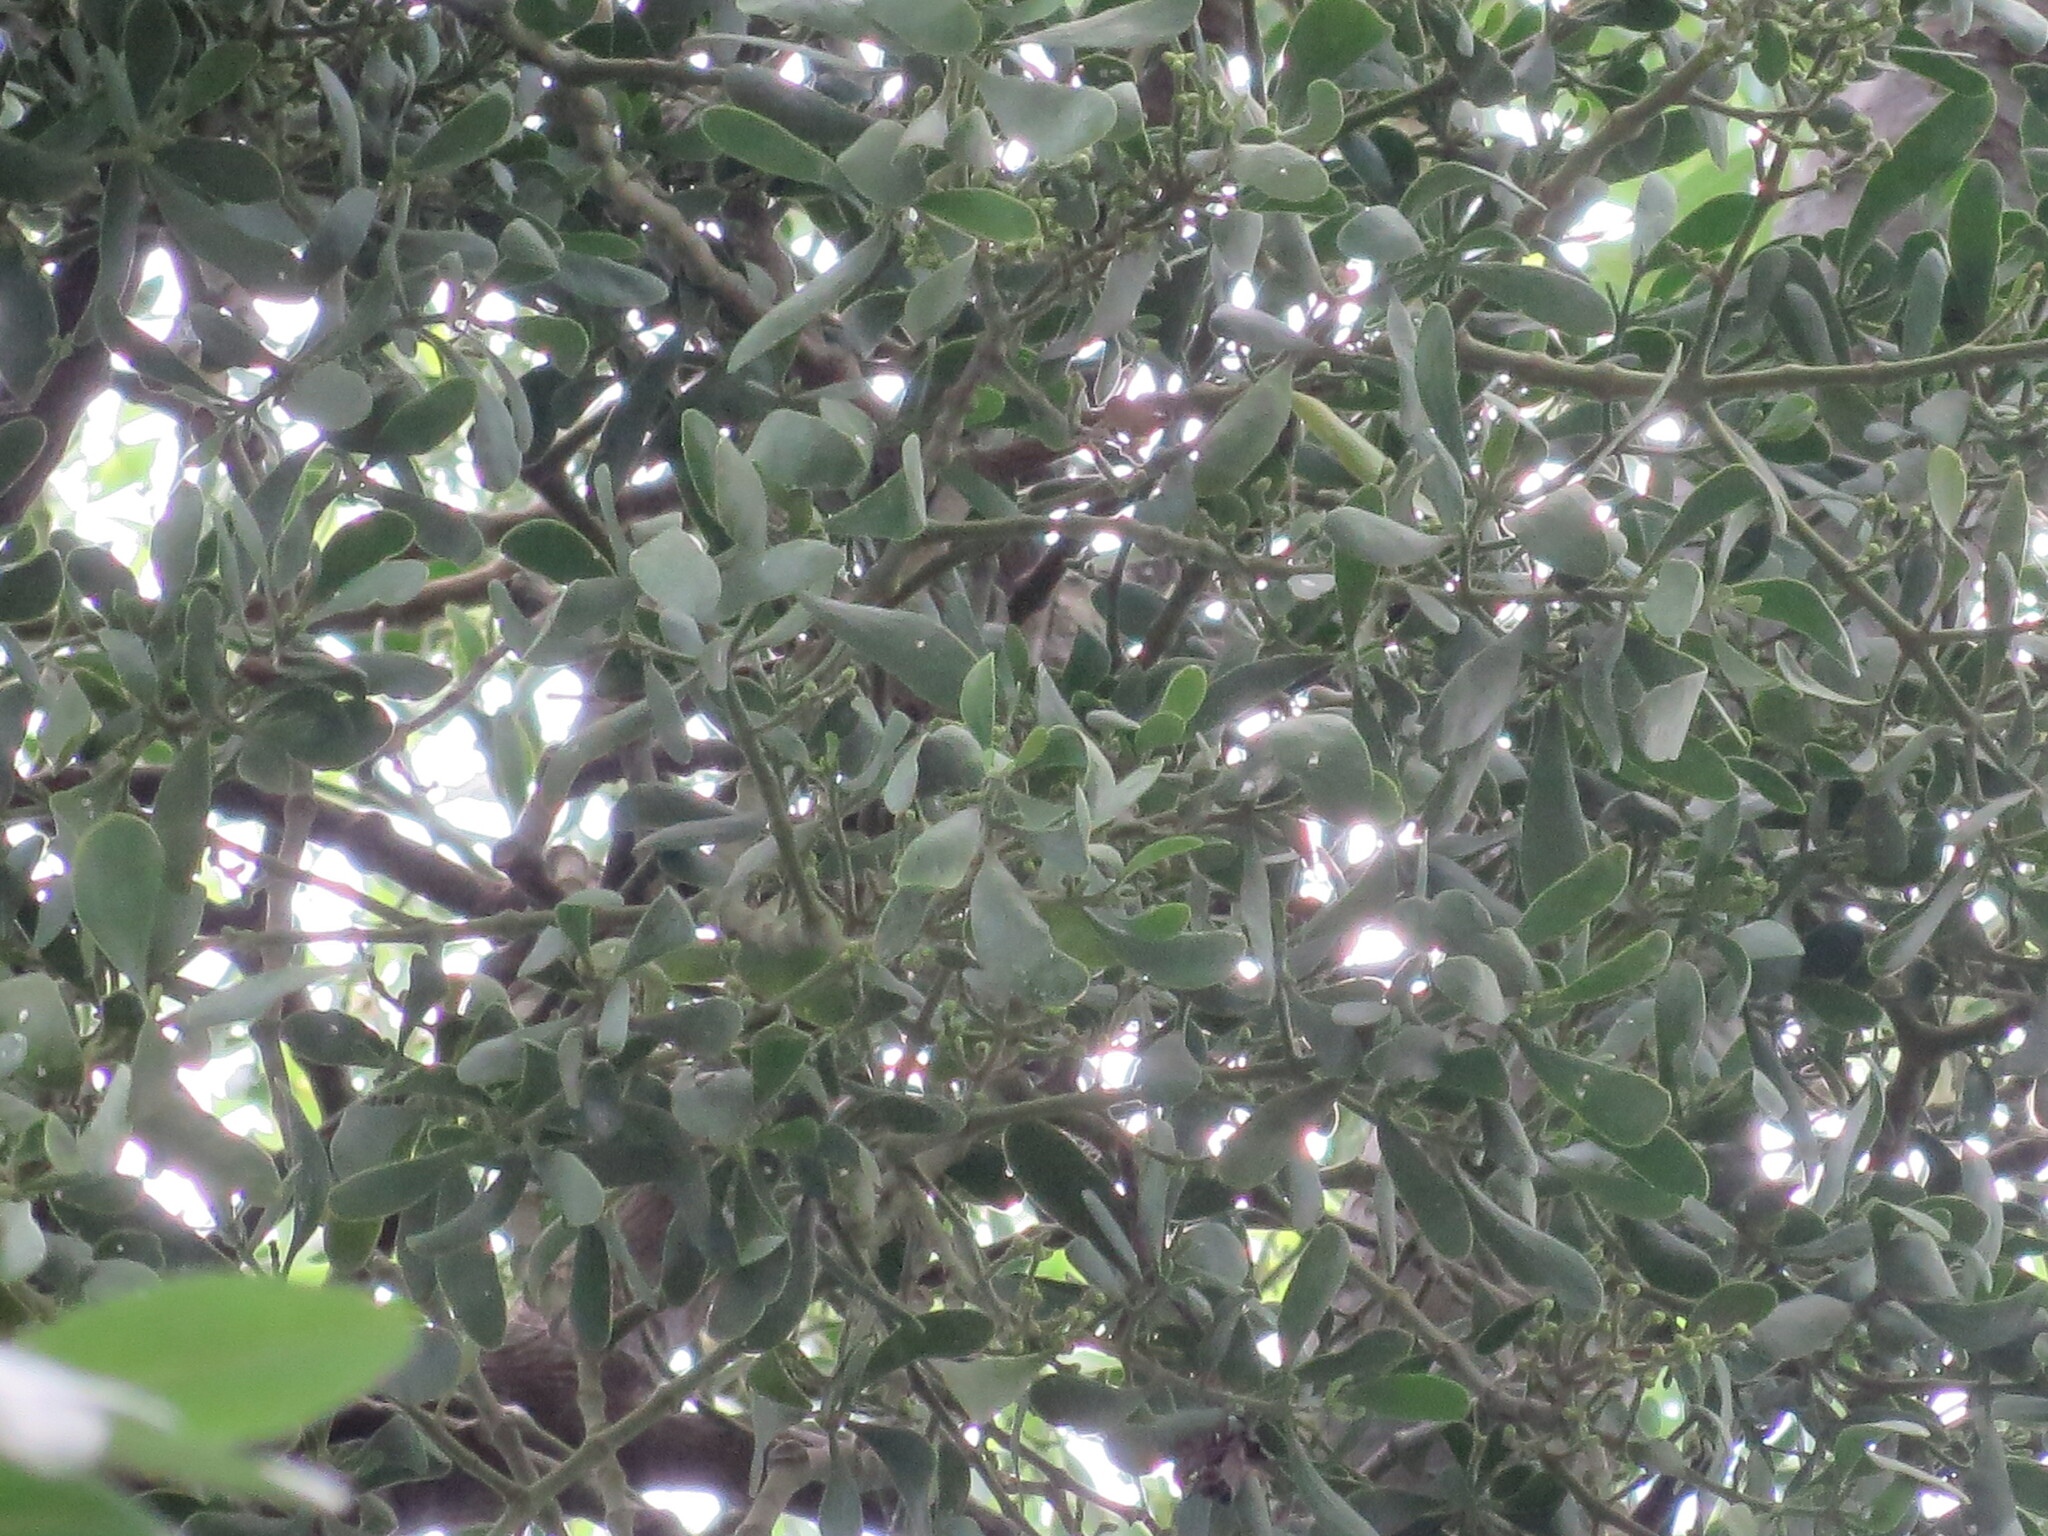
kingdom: Plantae
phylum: Tracheophyta
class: Magnoliopsida
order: Santalales
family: Viscaceae
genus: Phoradendron
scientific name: Phoradendron leucarpum
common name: Pacific mistletoe
